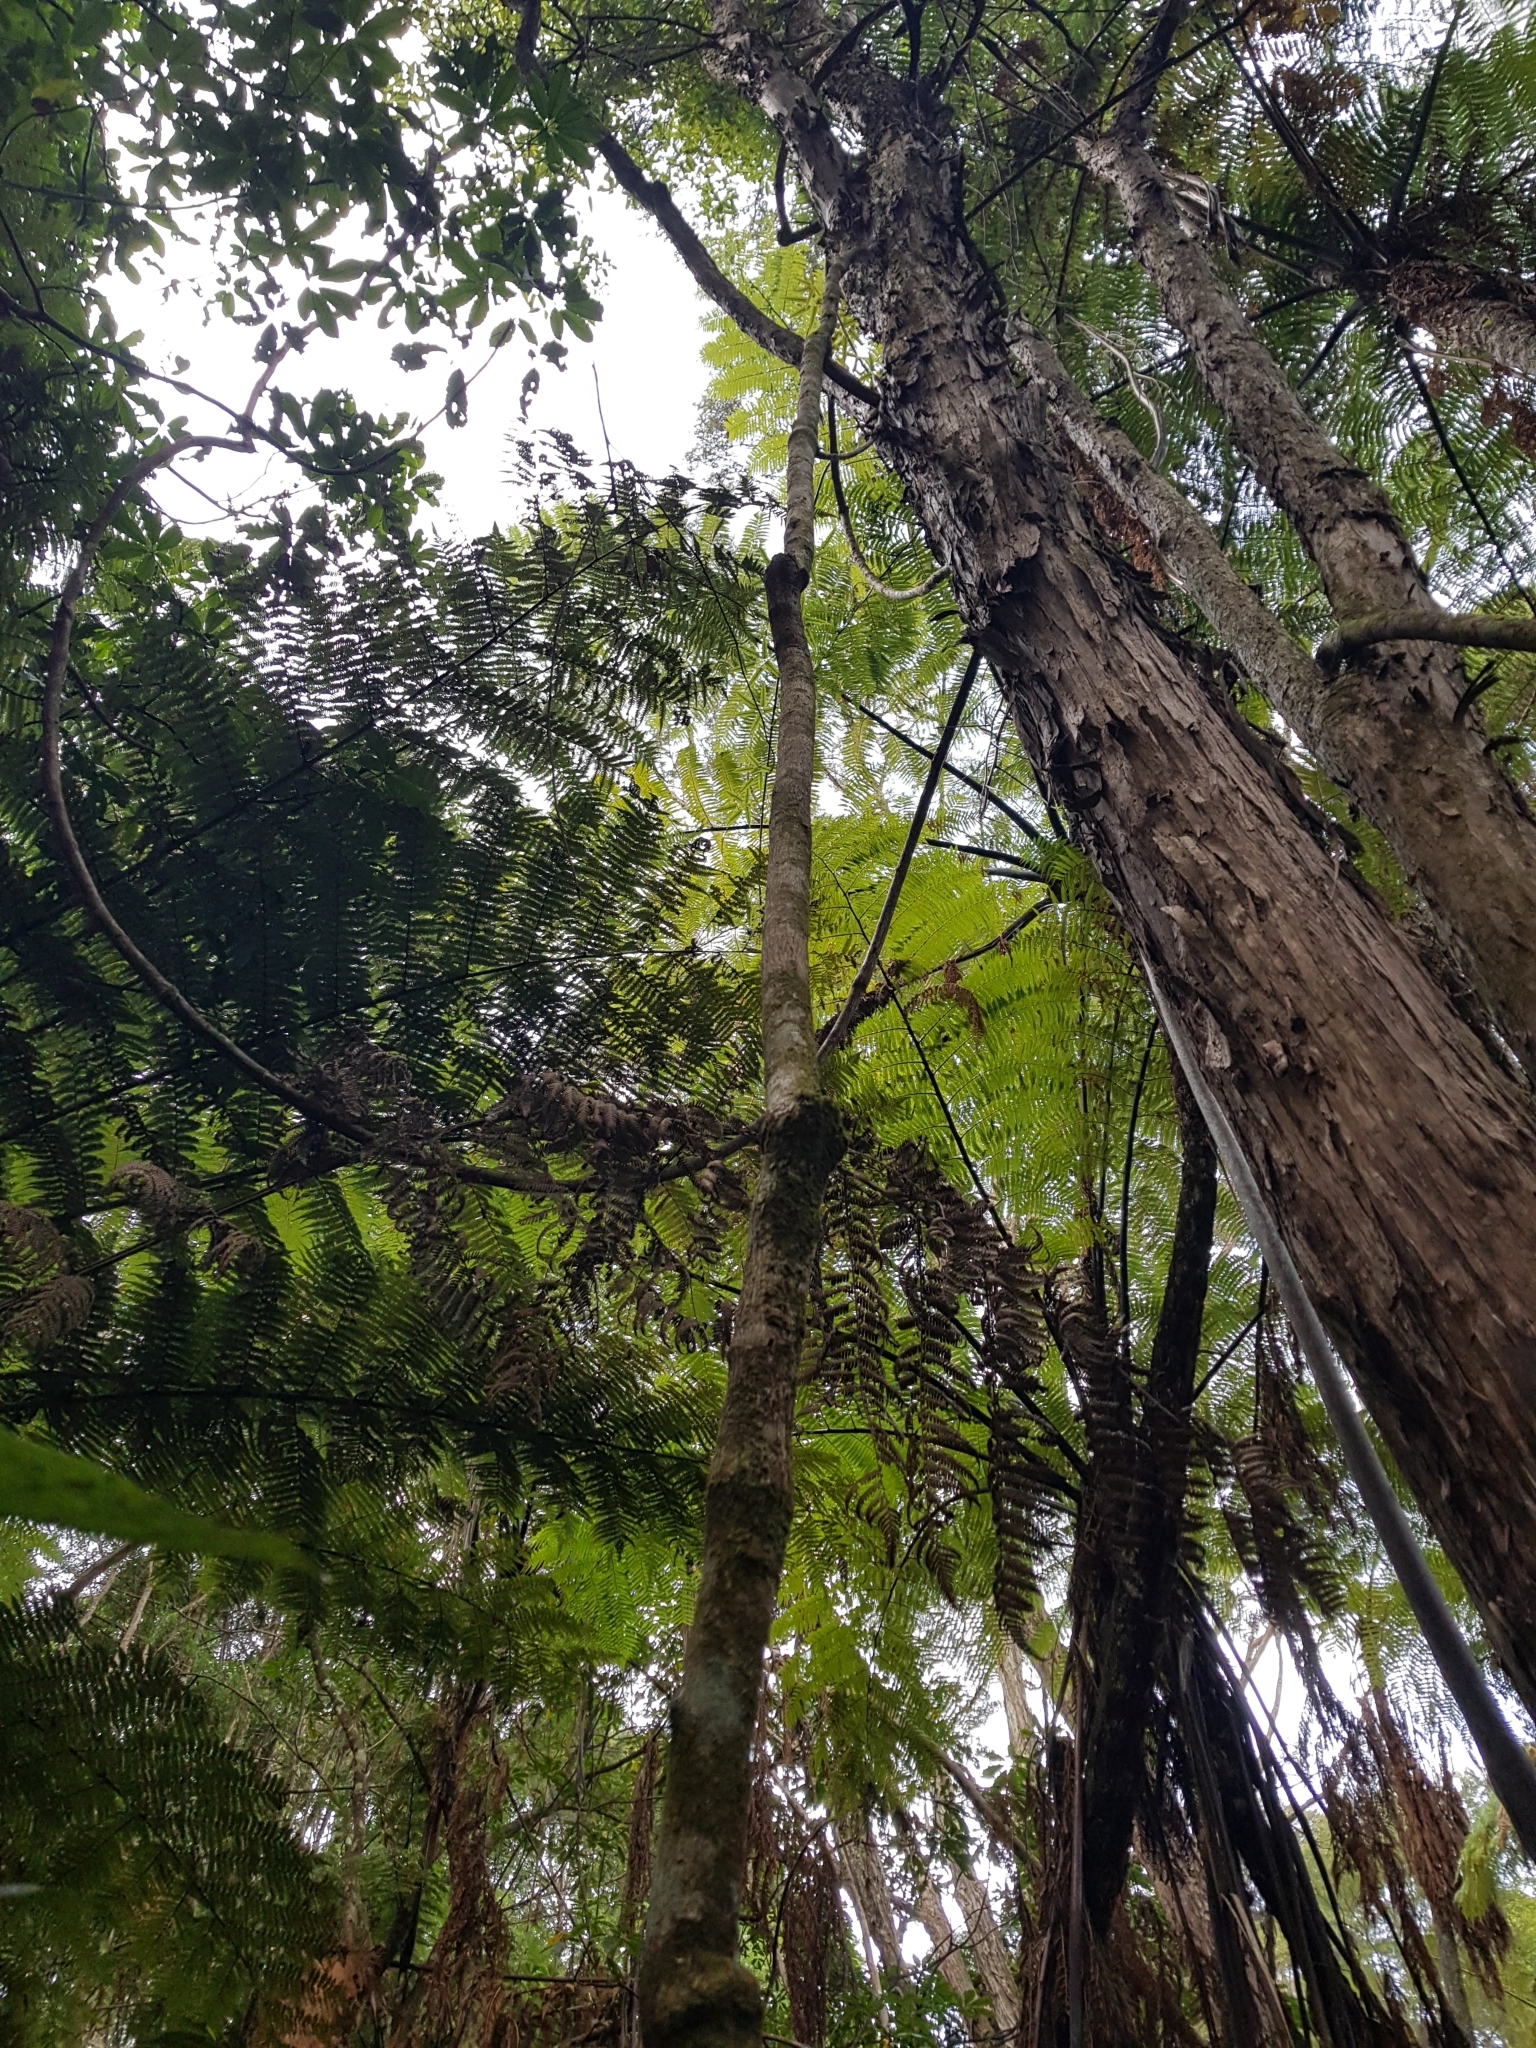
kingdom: Plantae
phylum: Tracheophyta
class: Magnoliopsida
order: Rosales
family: Rosaceae
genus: Rubus
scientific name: Rubus cissoides
